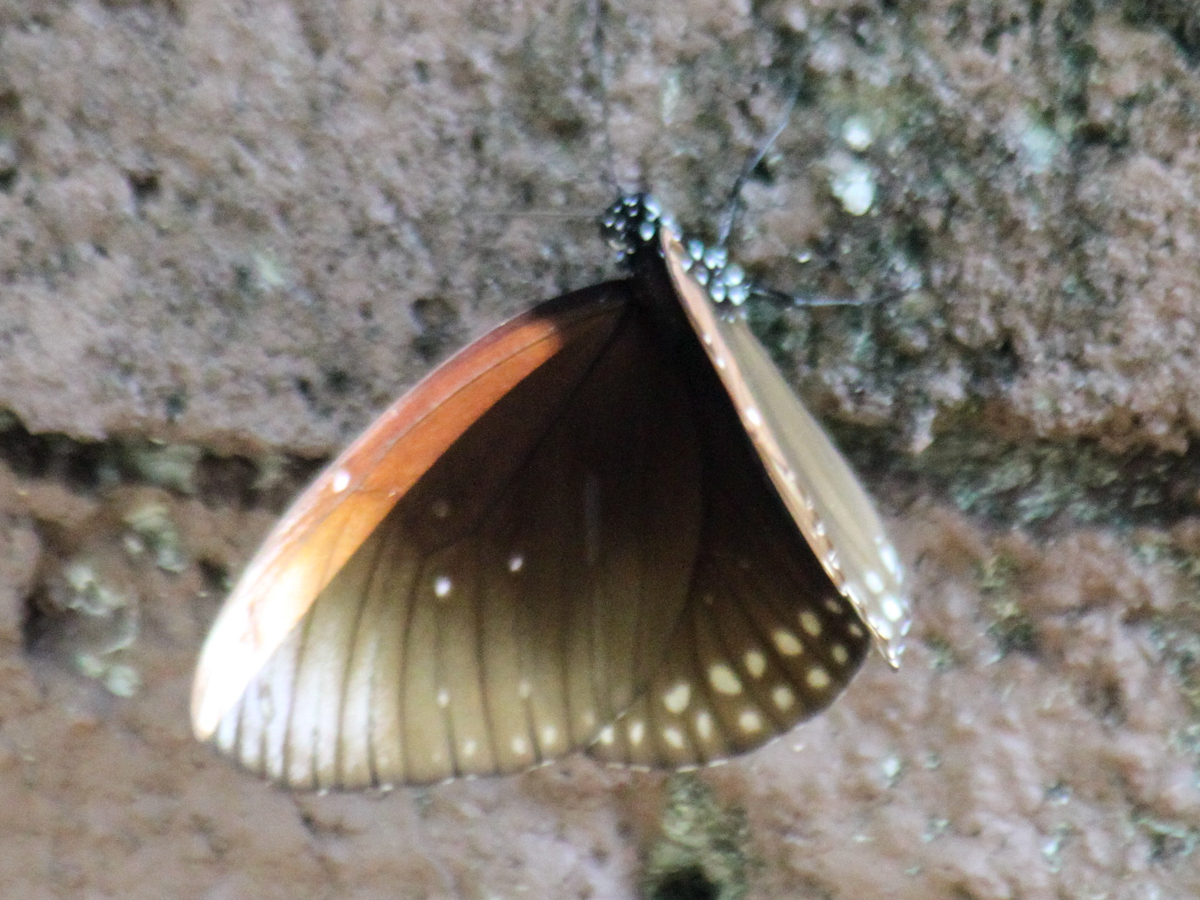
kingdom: Animalia
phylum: Arthropoda
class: Insecta
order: Lepidoptera
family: Nymphalidae
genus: Euploea
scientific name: Euploea core
